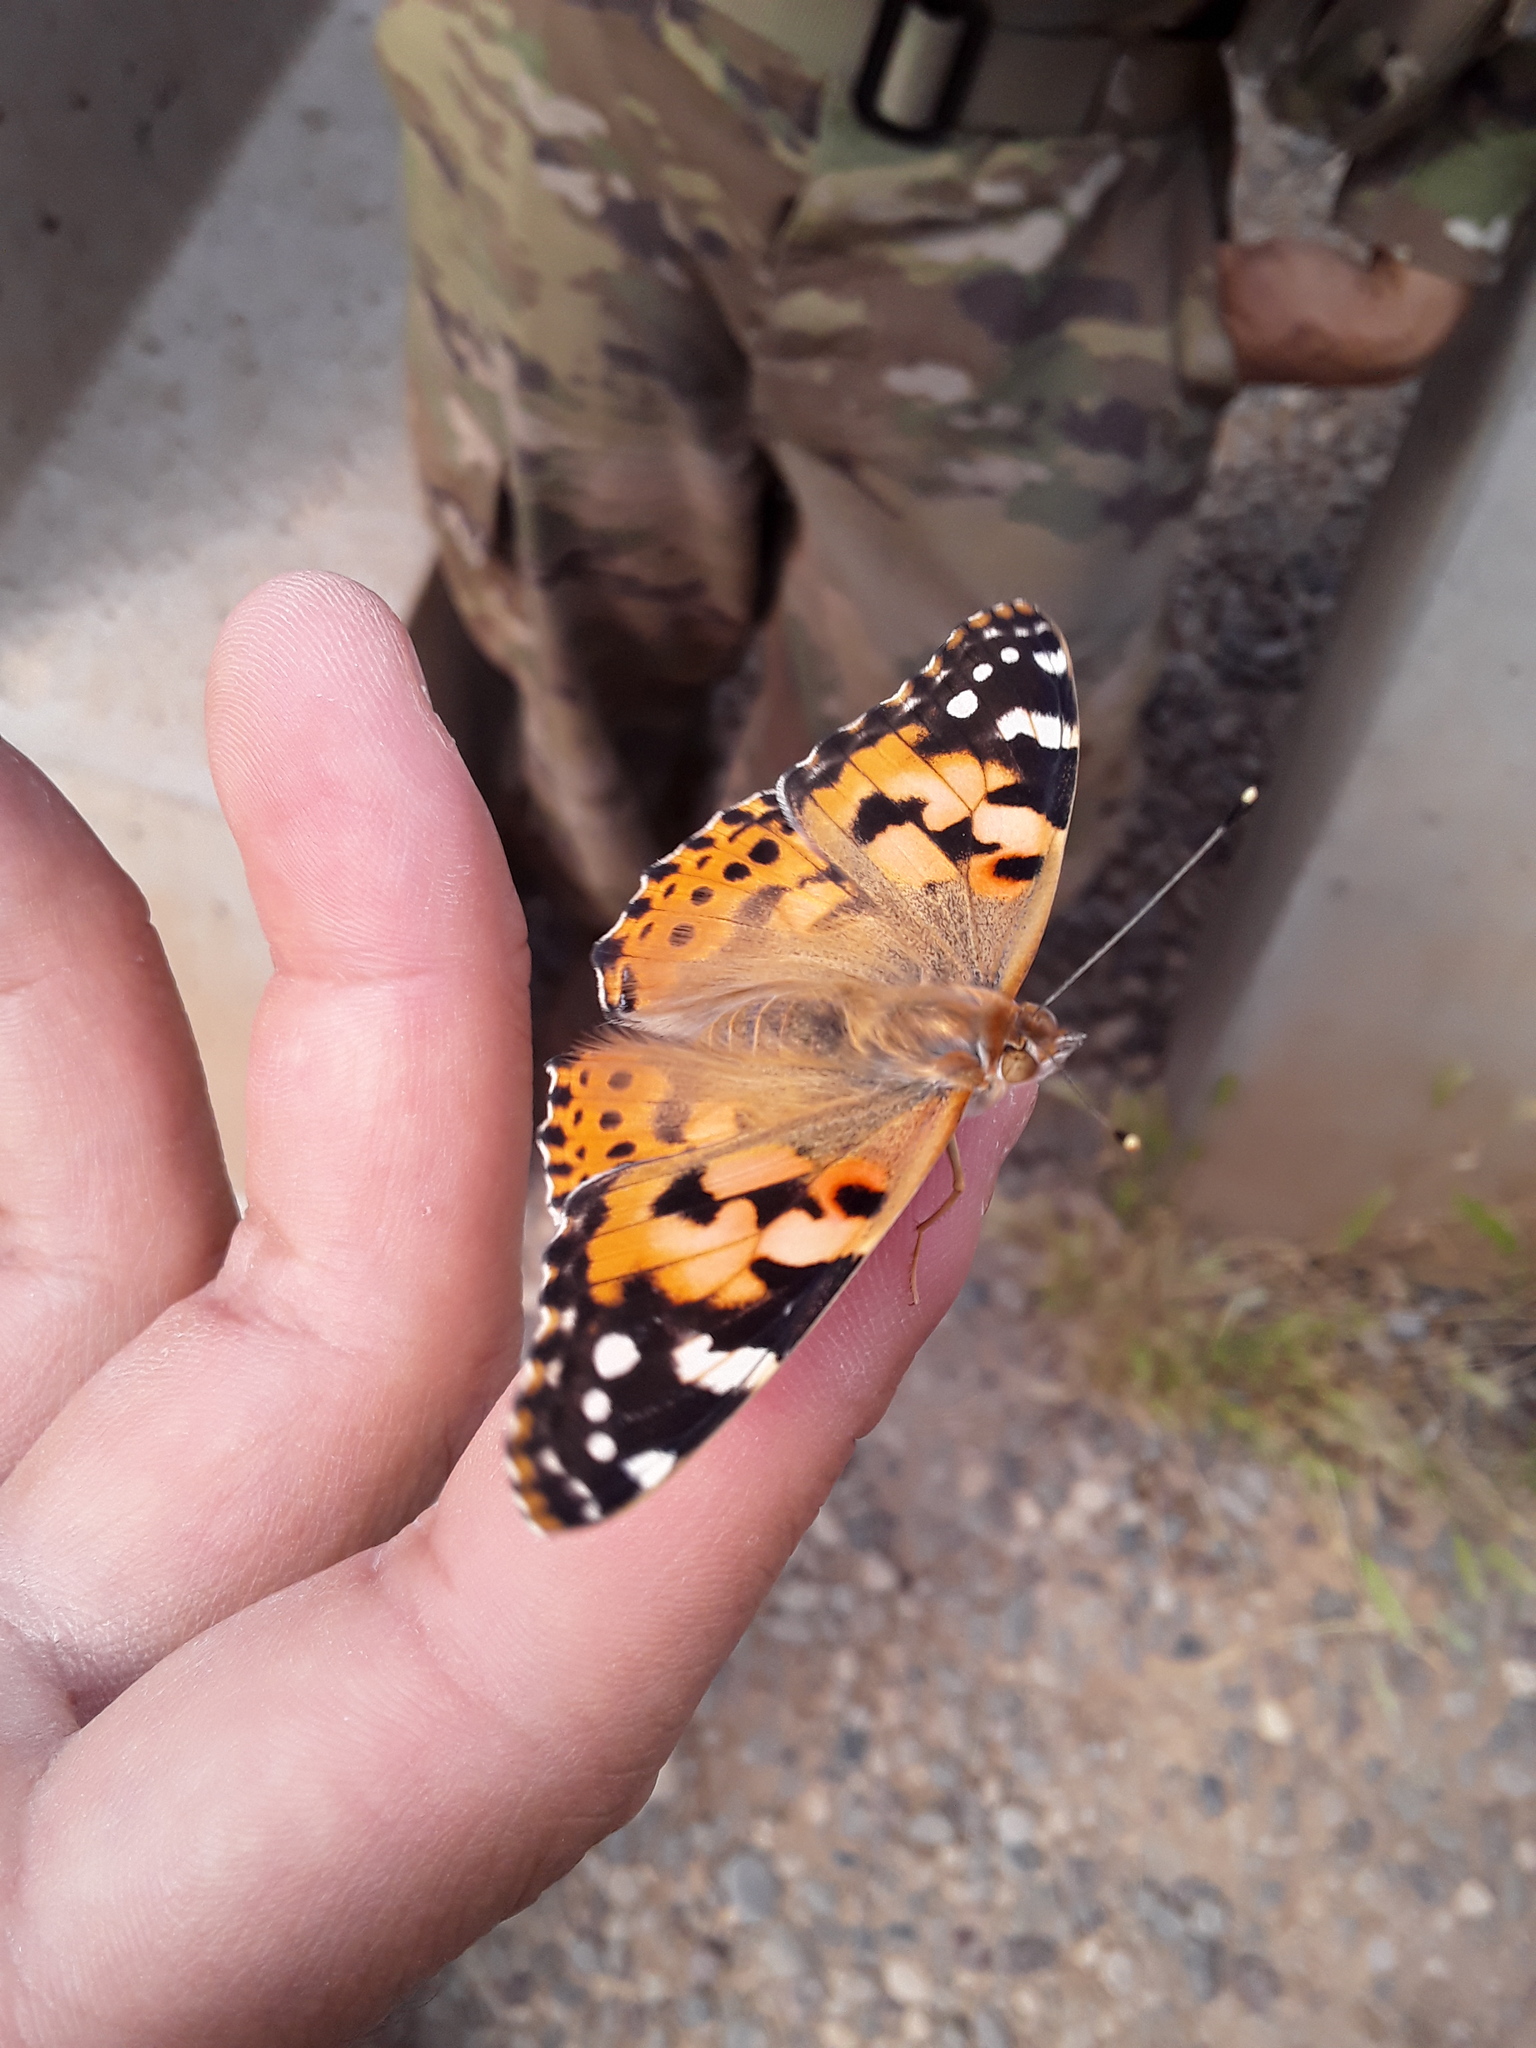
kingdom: Animalia
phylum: Arthropoda
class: Insecta
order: Lepidoptera
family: Nymphalidae
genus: Vanessa
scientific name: Vanessa cardui
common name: Painted lady
